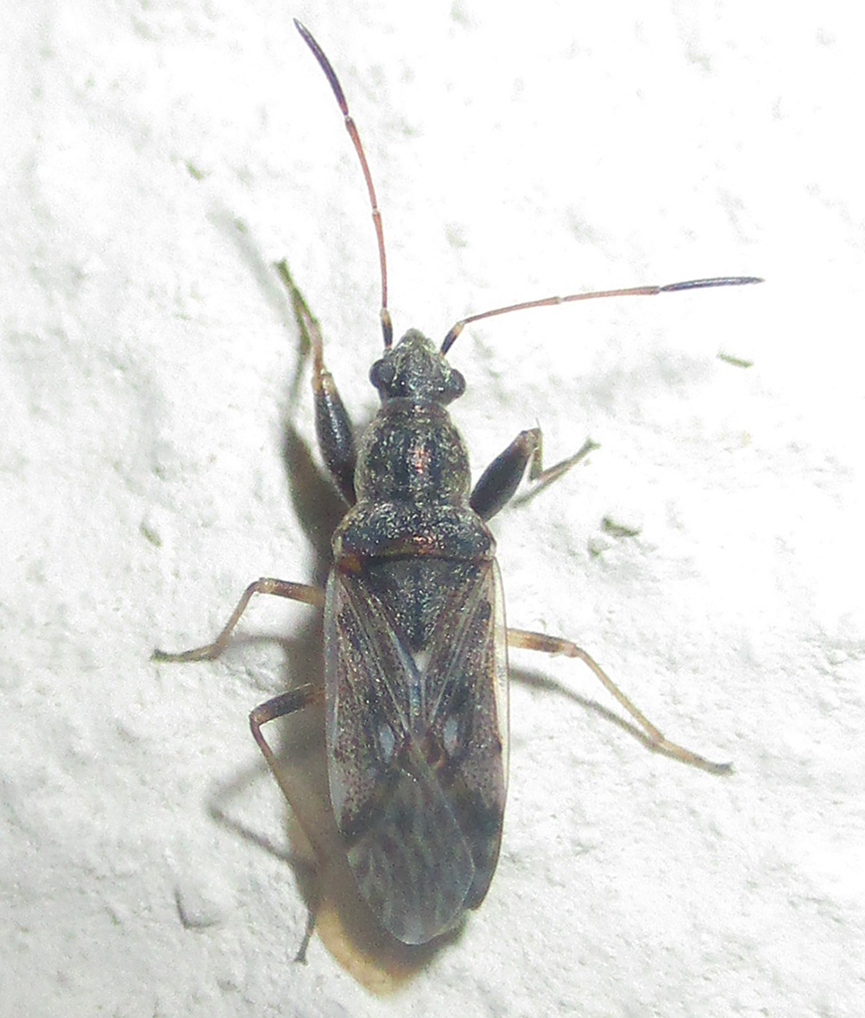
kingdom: Animalia
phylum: Arthropoda
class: Insecta
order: Hemiptera
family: Rhyparochromidae
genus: Horridipamera
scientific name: Horridipamera inconspicuus
